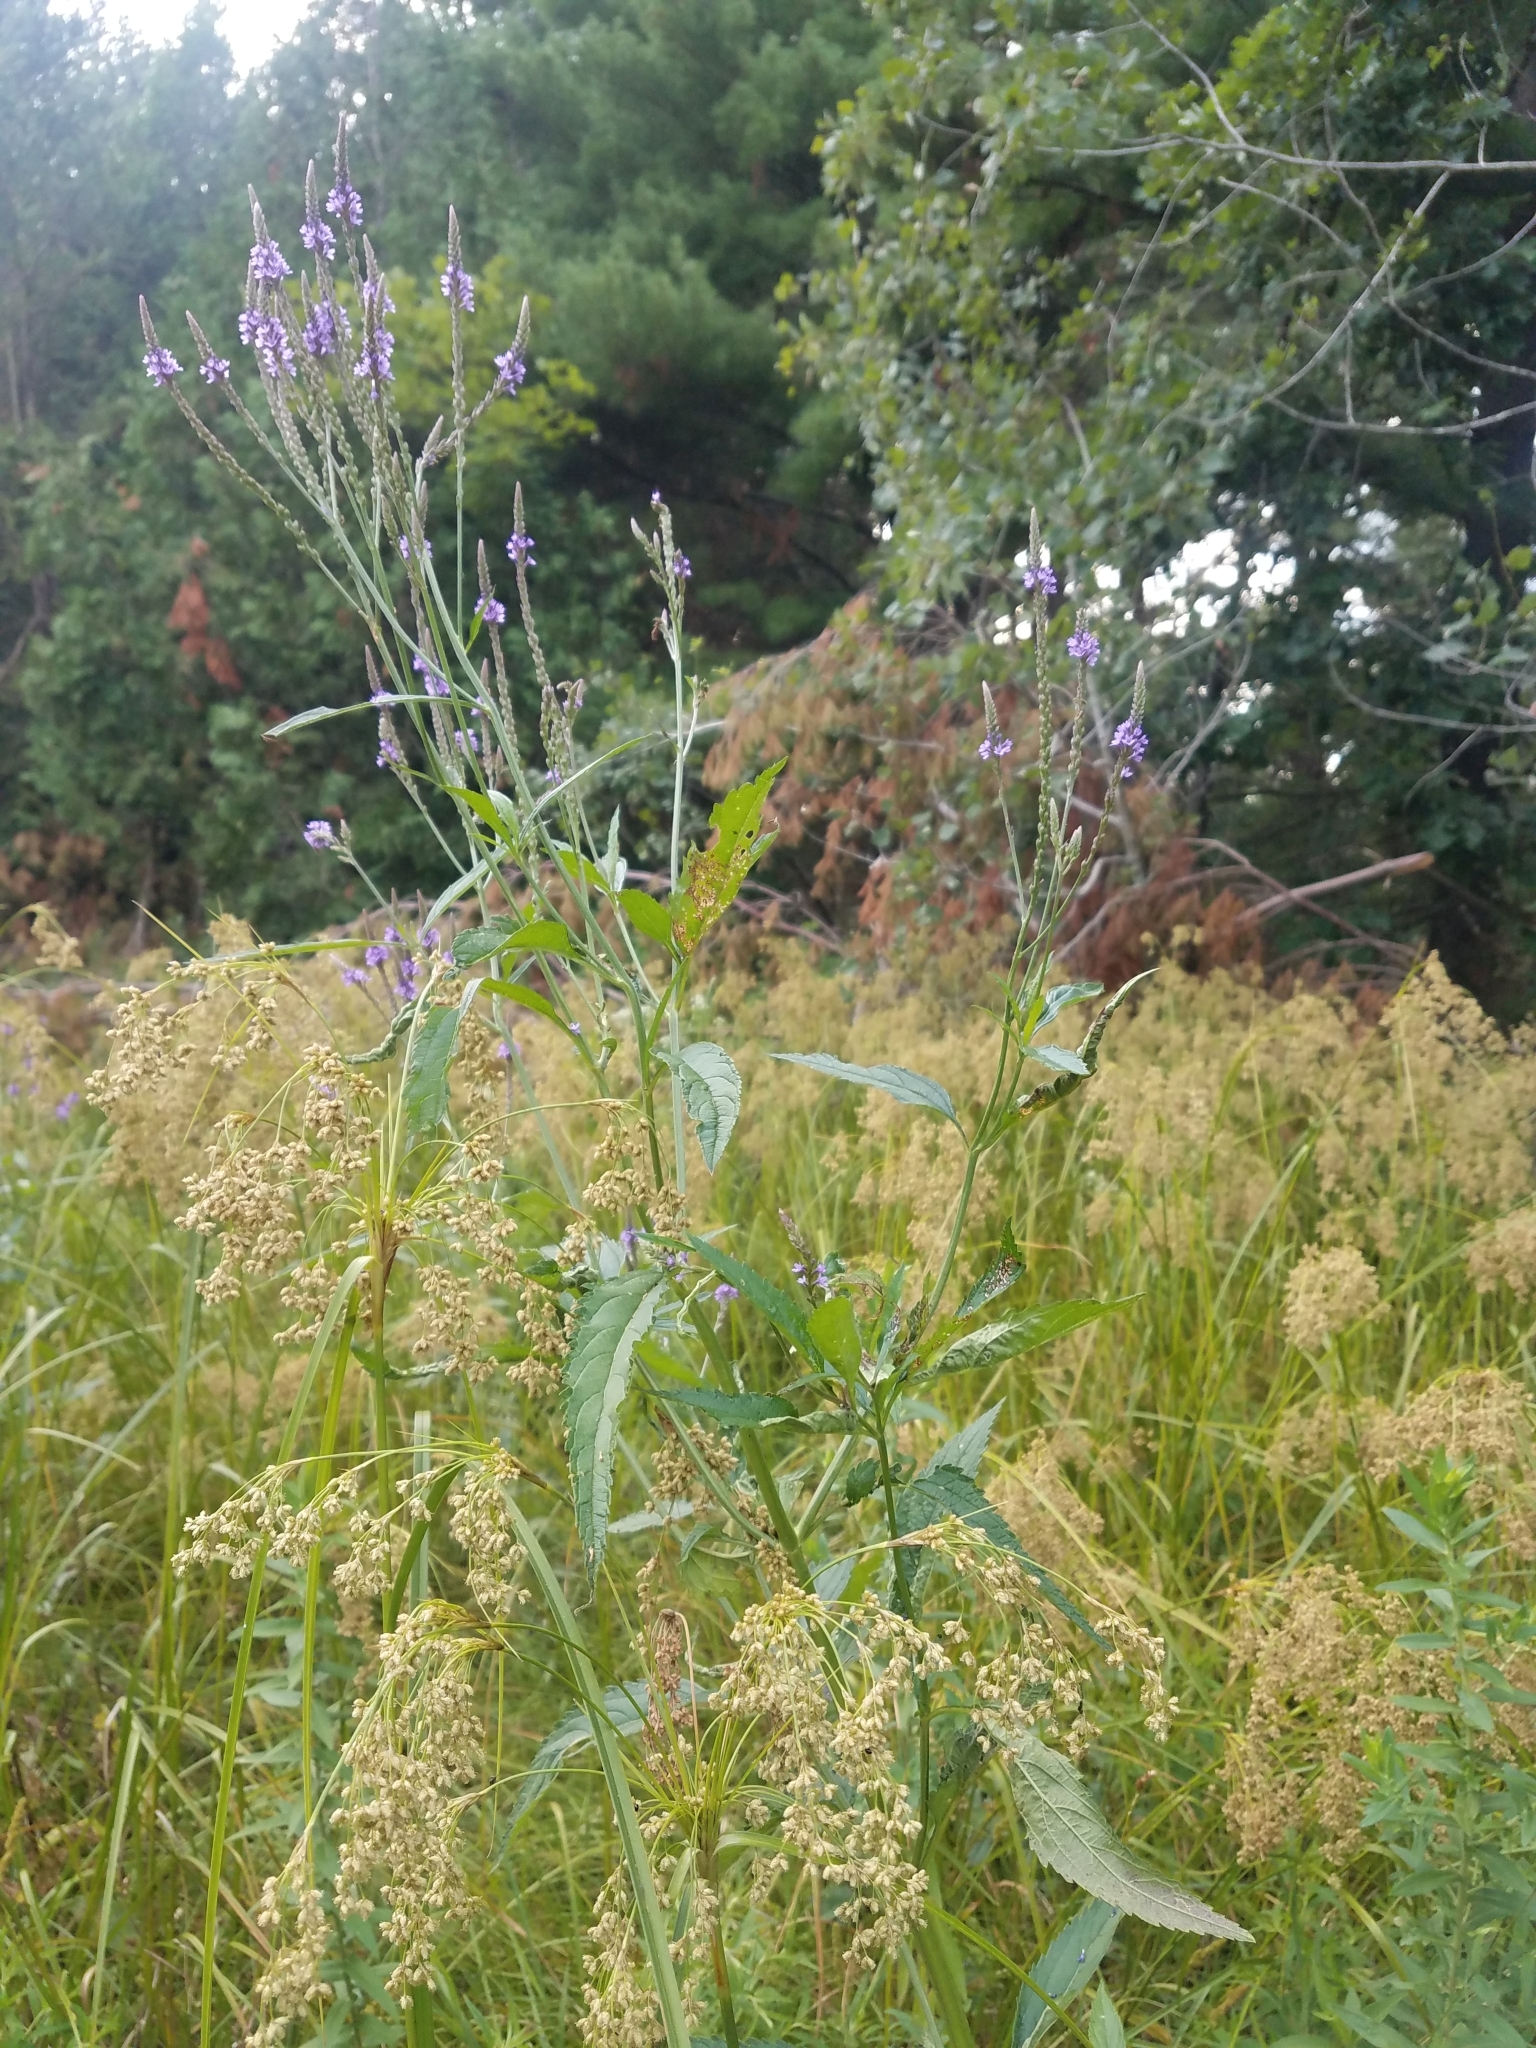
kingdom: Plantae
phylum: Tracheophyta
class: Magnoliopsida
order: Lamiales
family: Verbenaceae
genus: Verbena
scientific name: Verbena hastata
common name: American blue vervain
